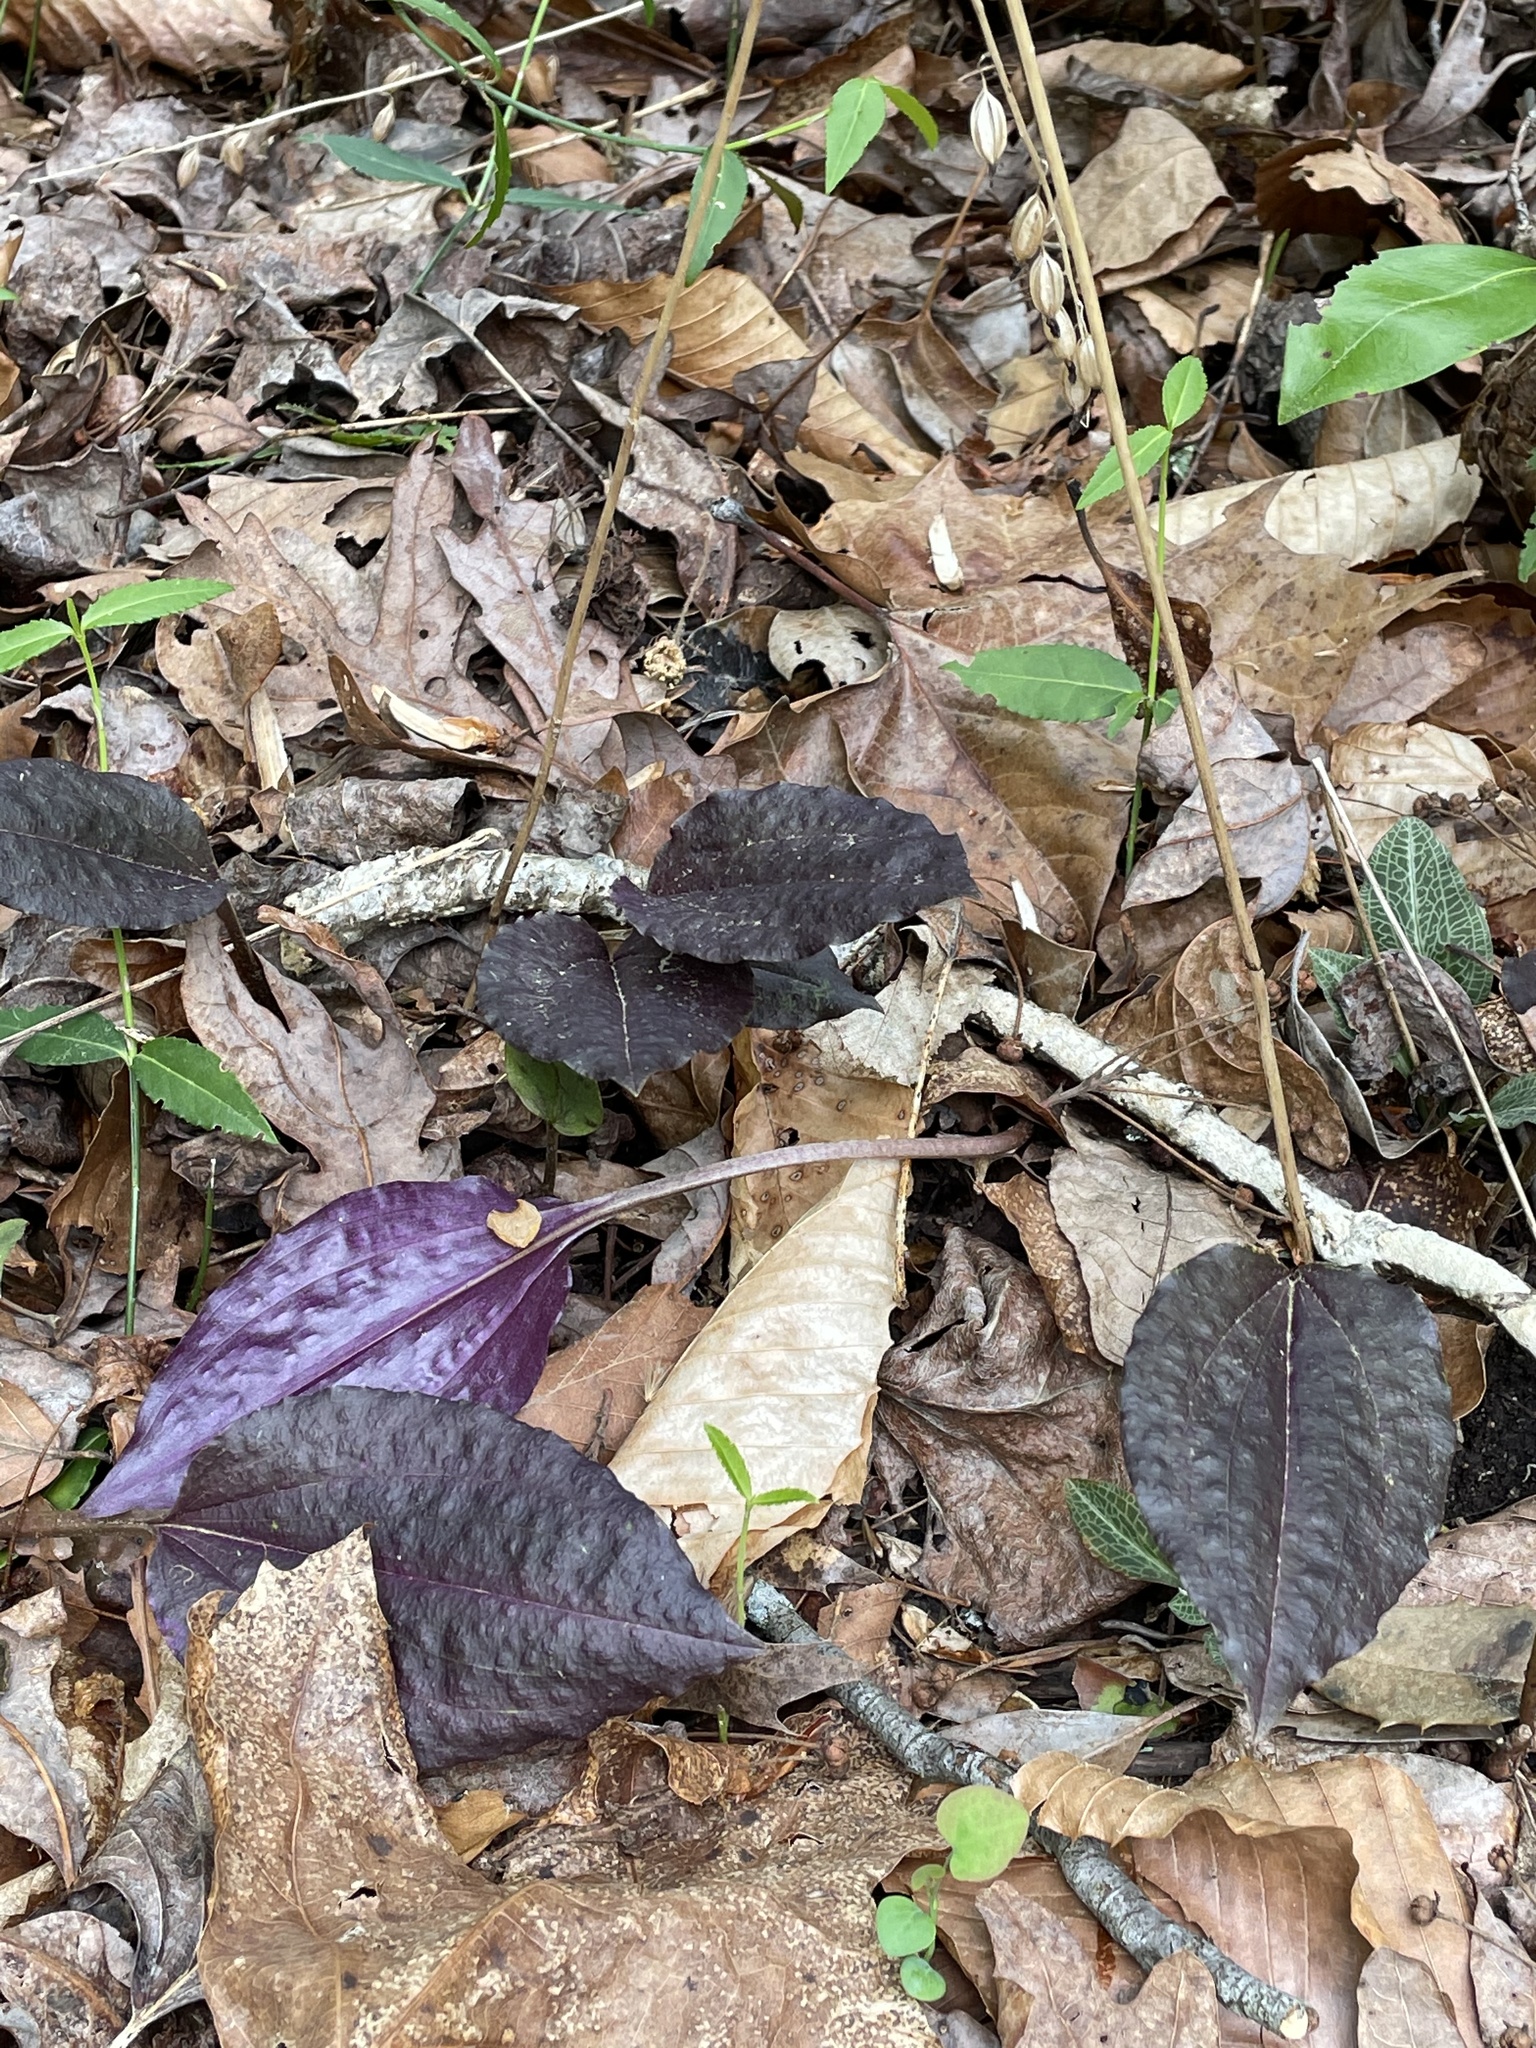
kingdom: Plantae
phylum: Tracheophyta
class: Liliopsida
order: Asparagales
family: Orchidaceae
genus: Tipularia
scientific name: Tipularia discolor
